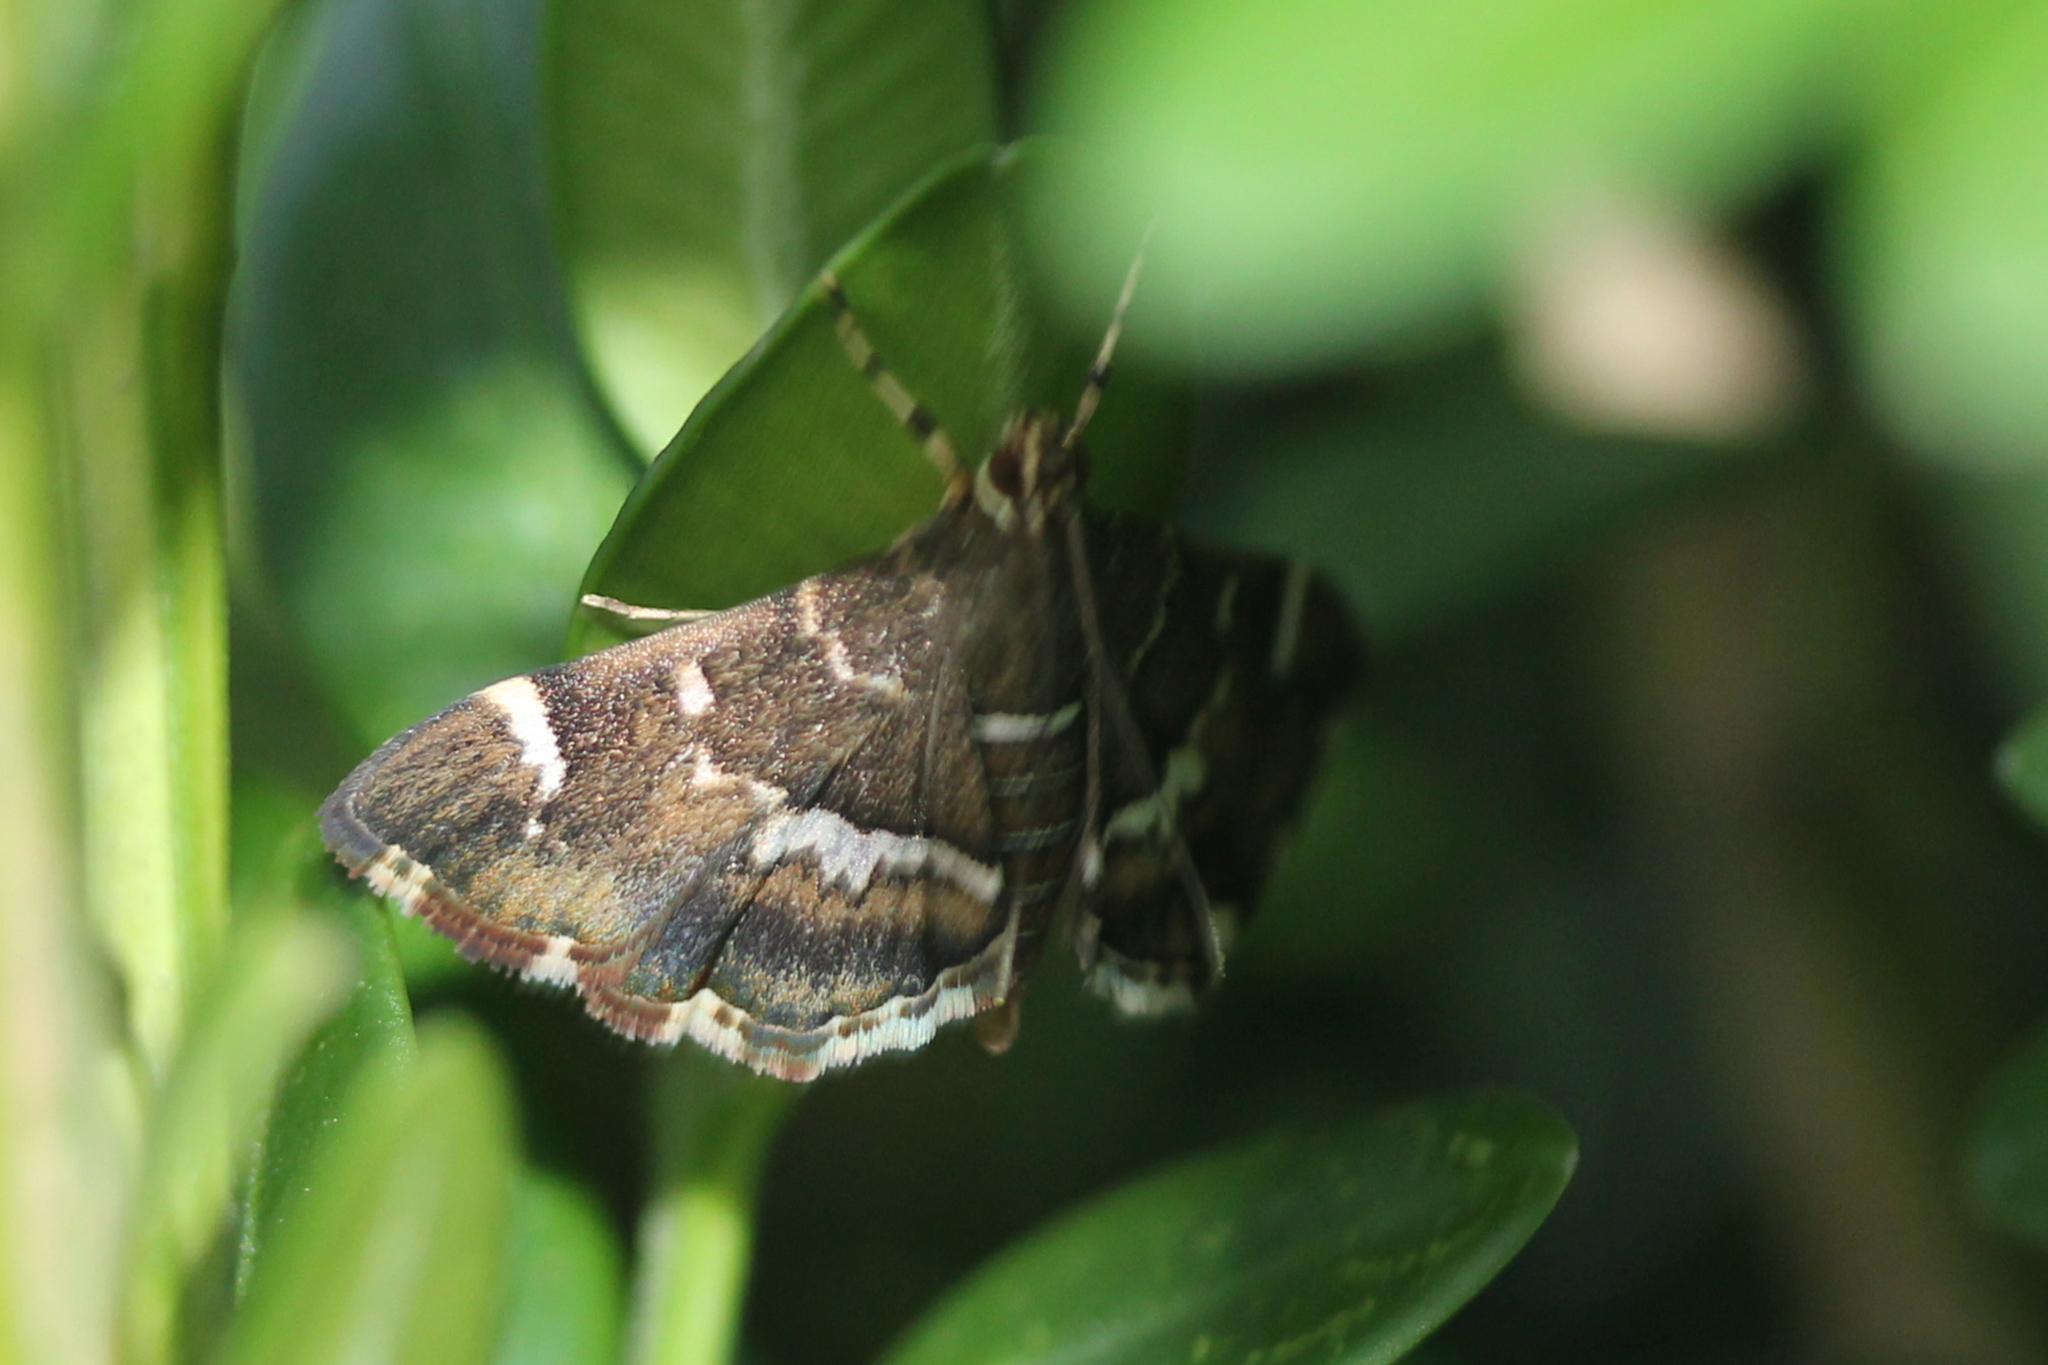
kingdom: Animalia
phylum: Arthropoda
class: Insecta
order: Lepidoptera
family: Crambidae
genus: Hymenia
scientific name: Hymenia perspectalis
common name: Spotted beet webworm
